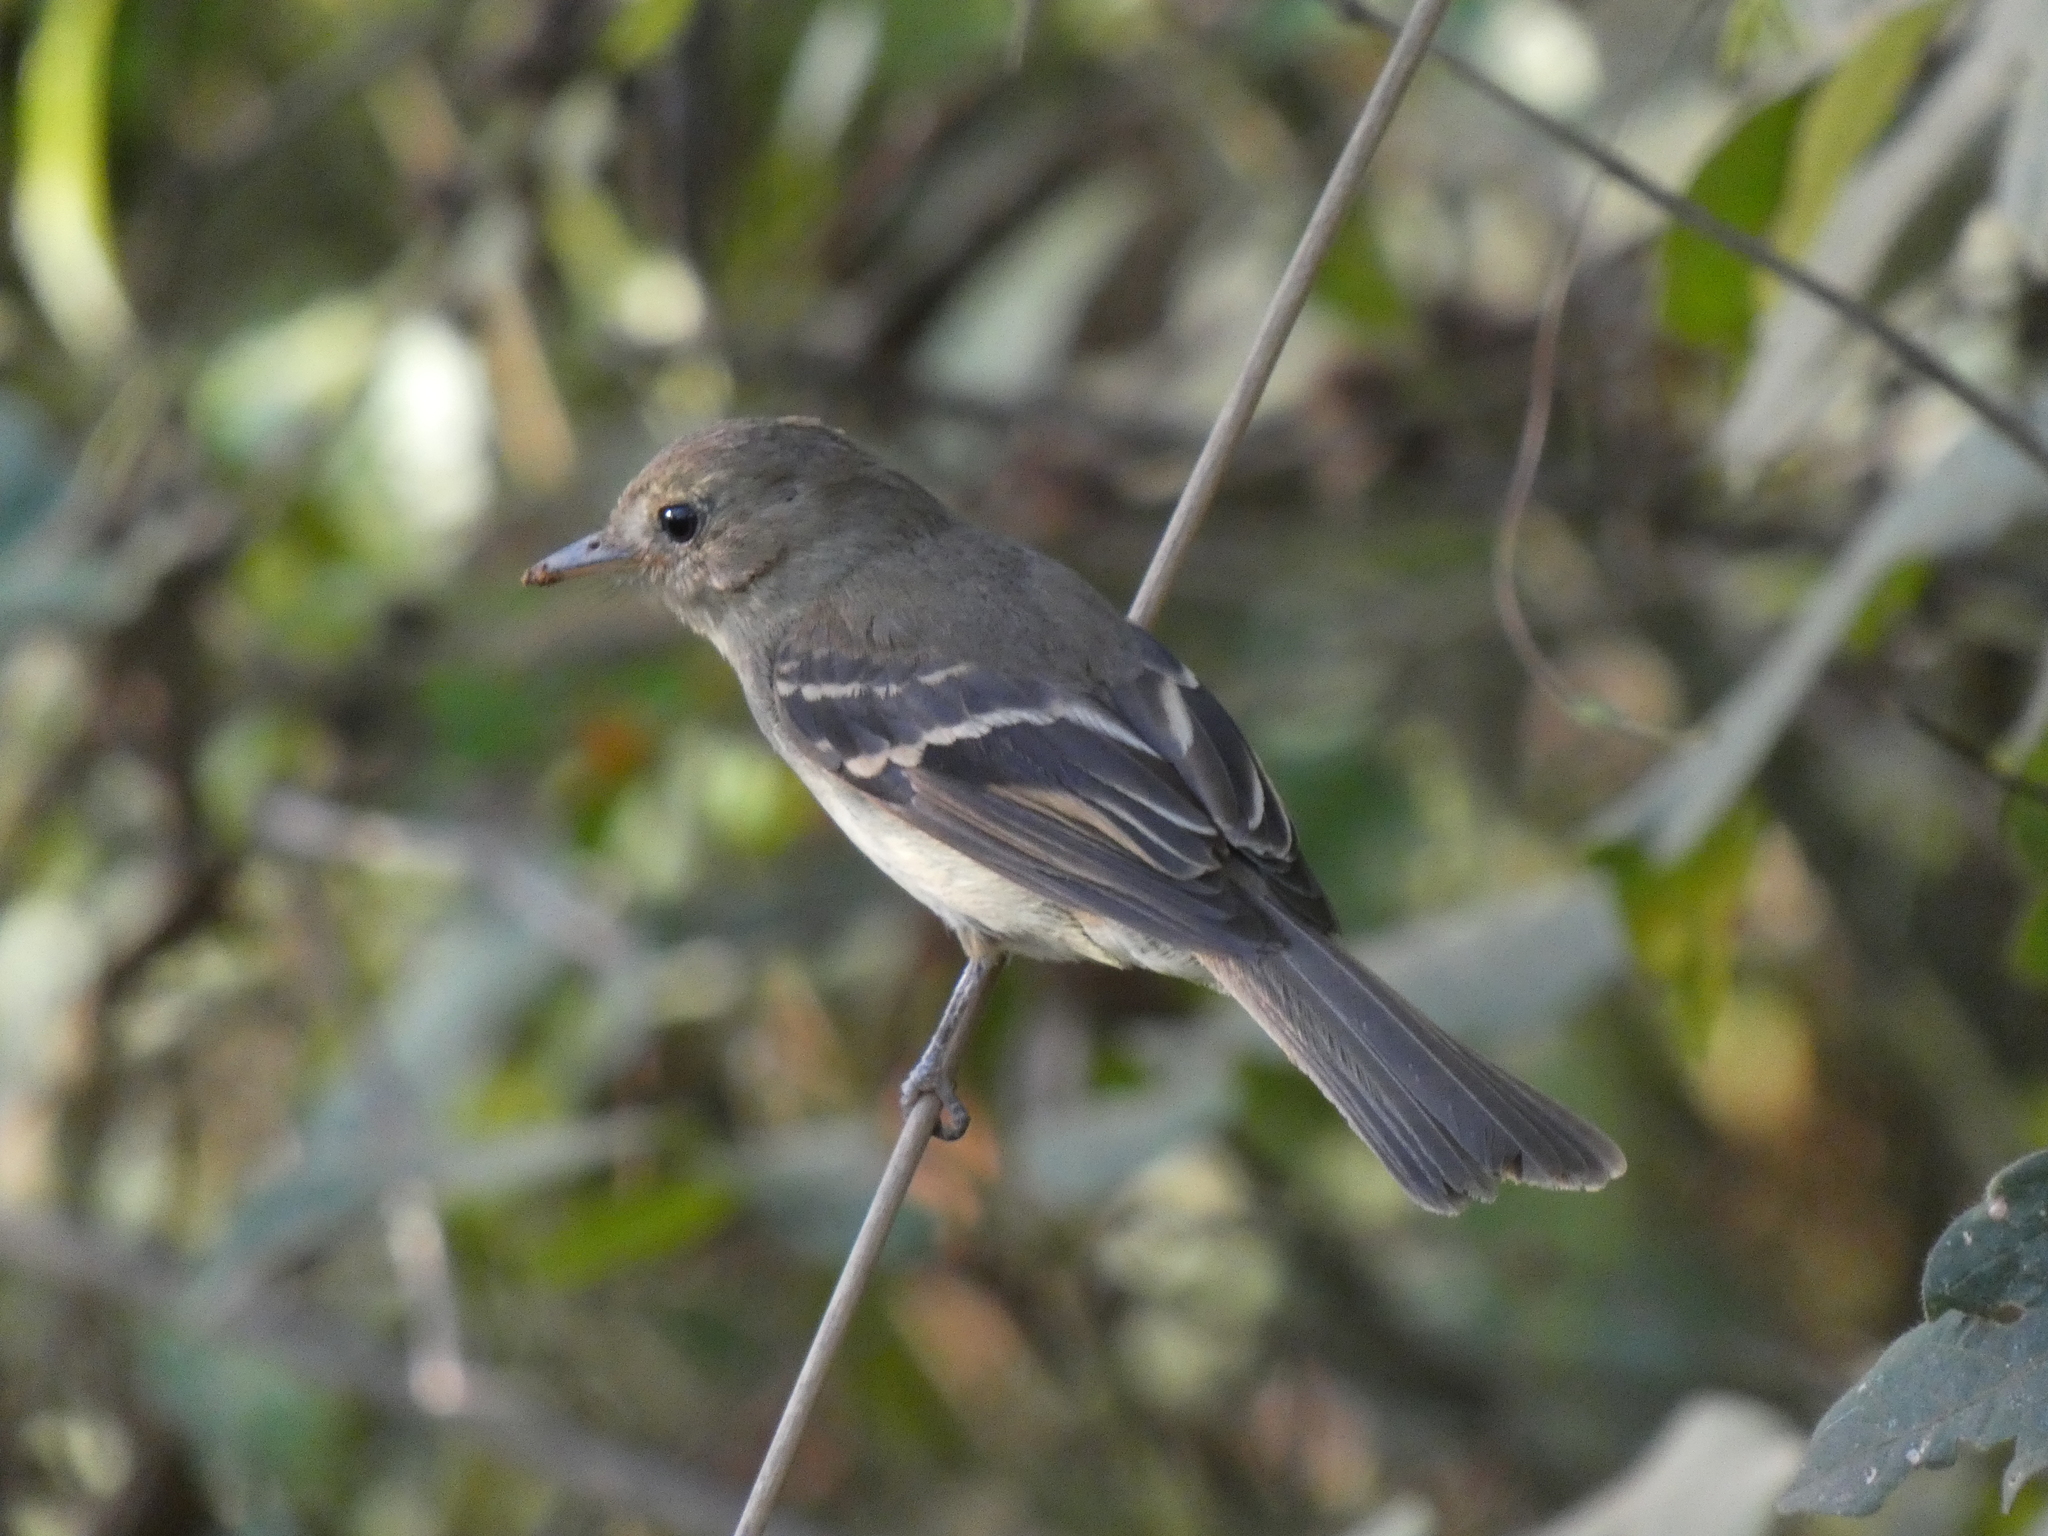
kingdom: Animalia
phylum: Chordata
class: Aves
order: Passeriformes
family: Tyrannidae
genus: Lathrotriccus
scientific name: Lathrotriccus euleri
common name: Euler's flycatcher
